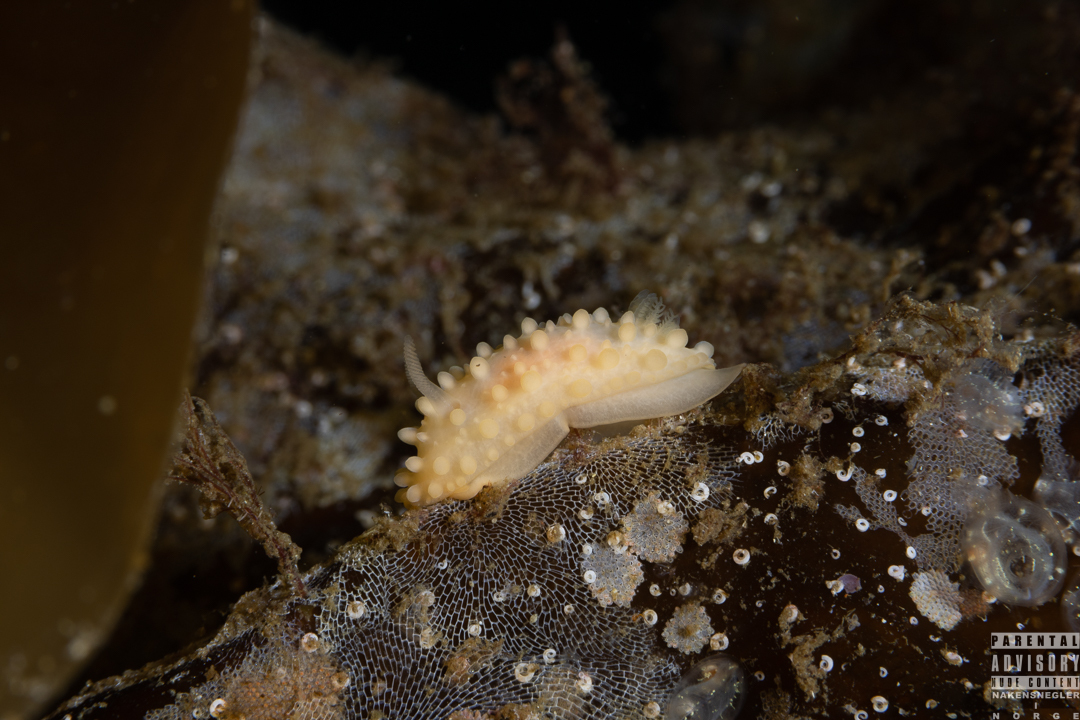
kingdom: Animalia
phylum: Mollusca
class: Gastropoda
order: Nudibranchia
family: Onchidorididae
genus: Adalaria
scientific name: Adalaria loveni
